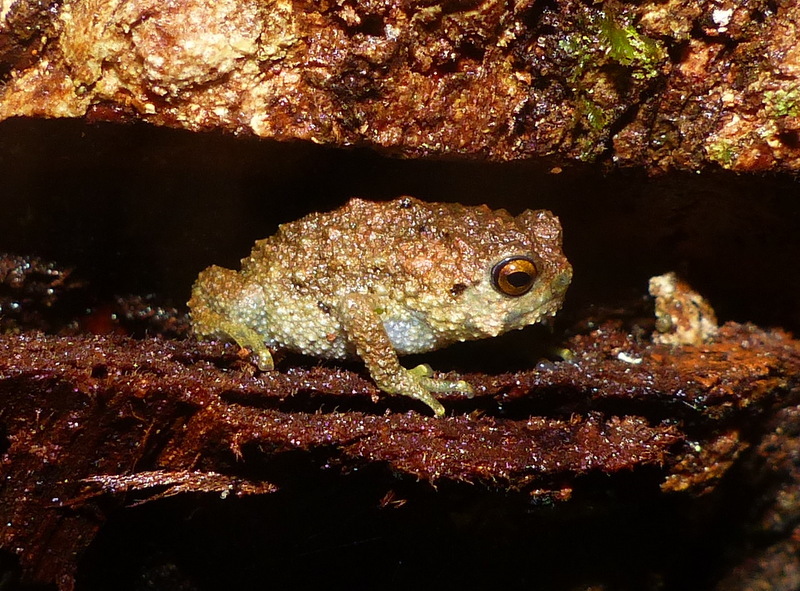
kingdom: Animalia
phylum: Chordata
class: Amphibia
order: Anura
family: Brevicipitidae
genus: Callulina
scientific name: Callulina kreffti
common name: Krefft's warty frog
